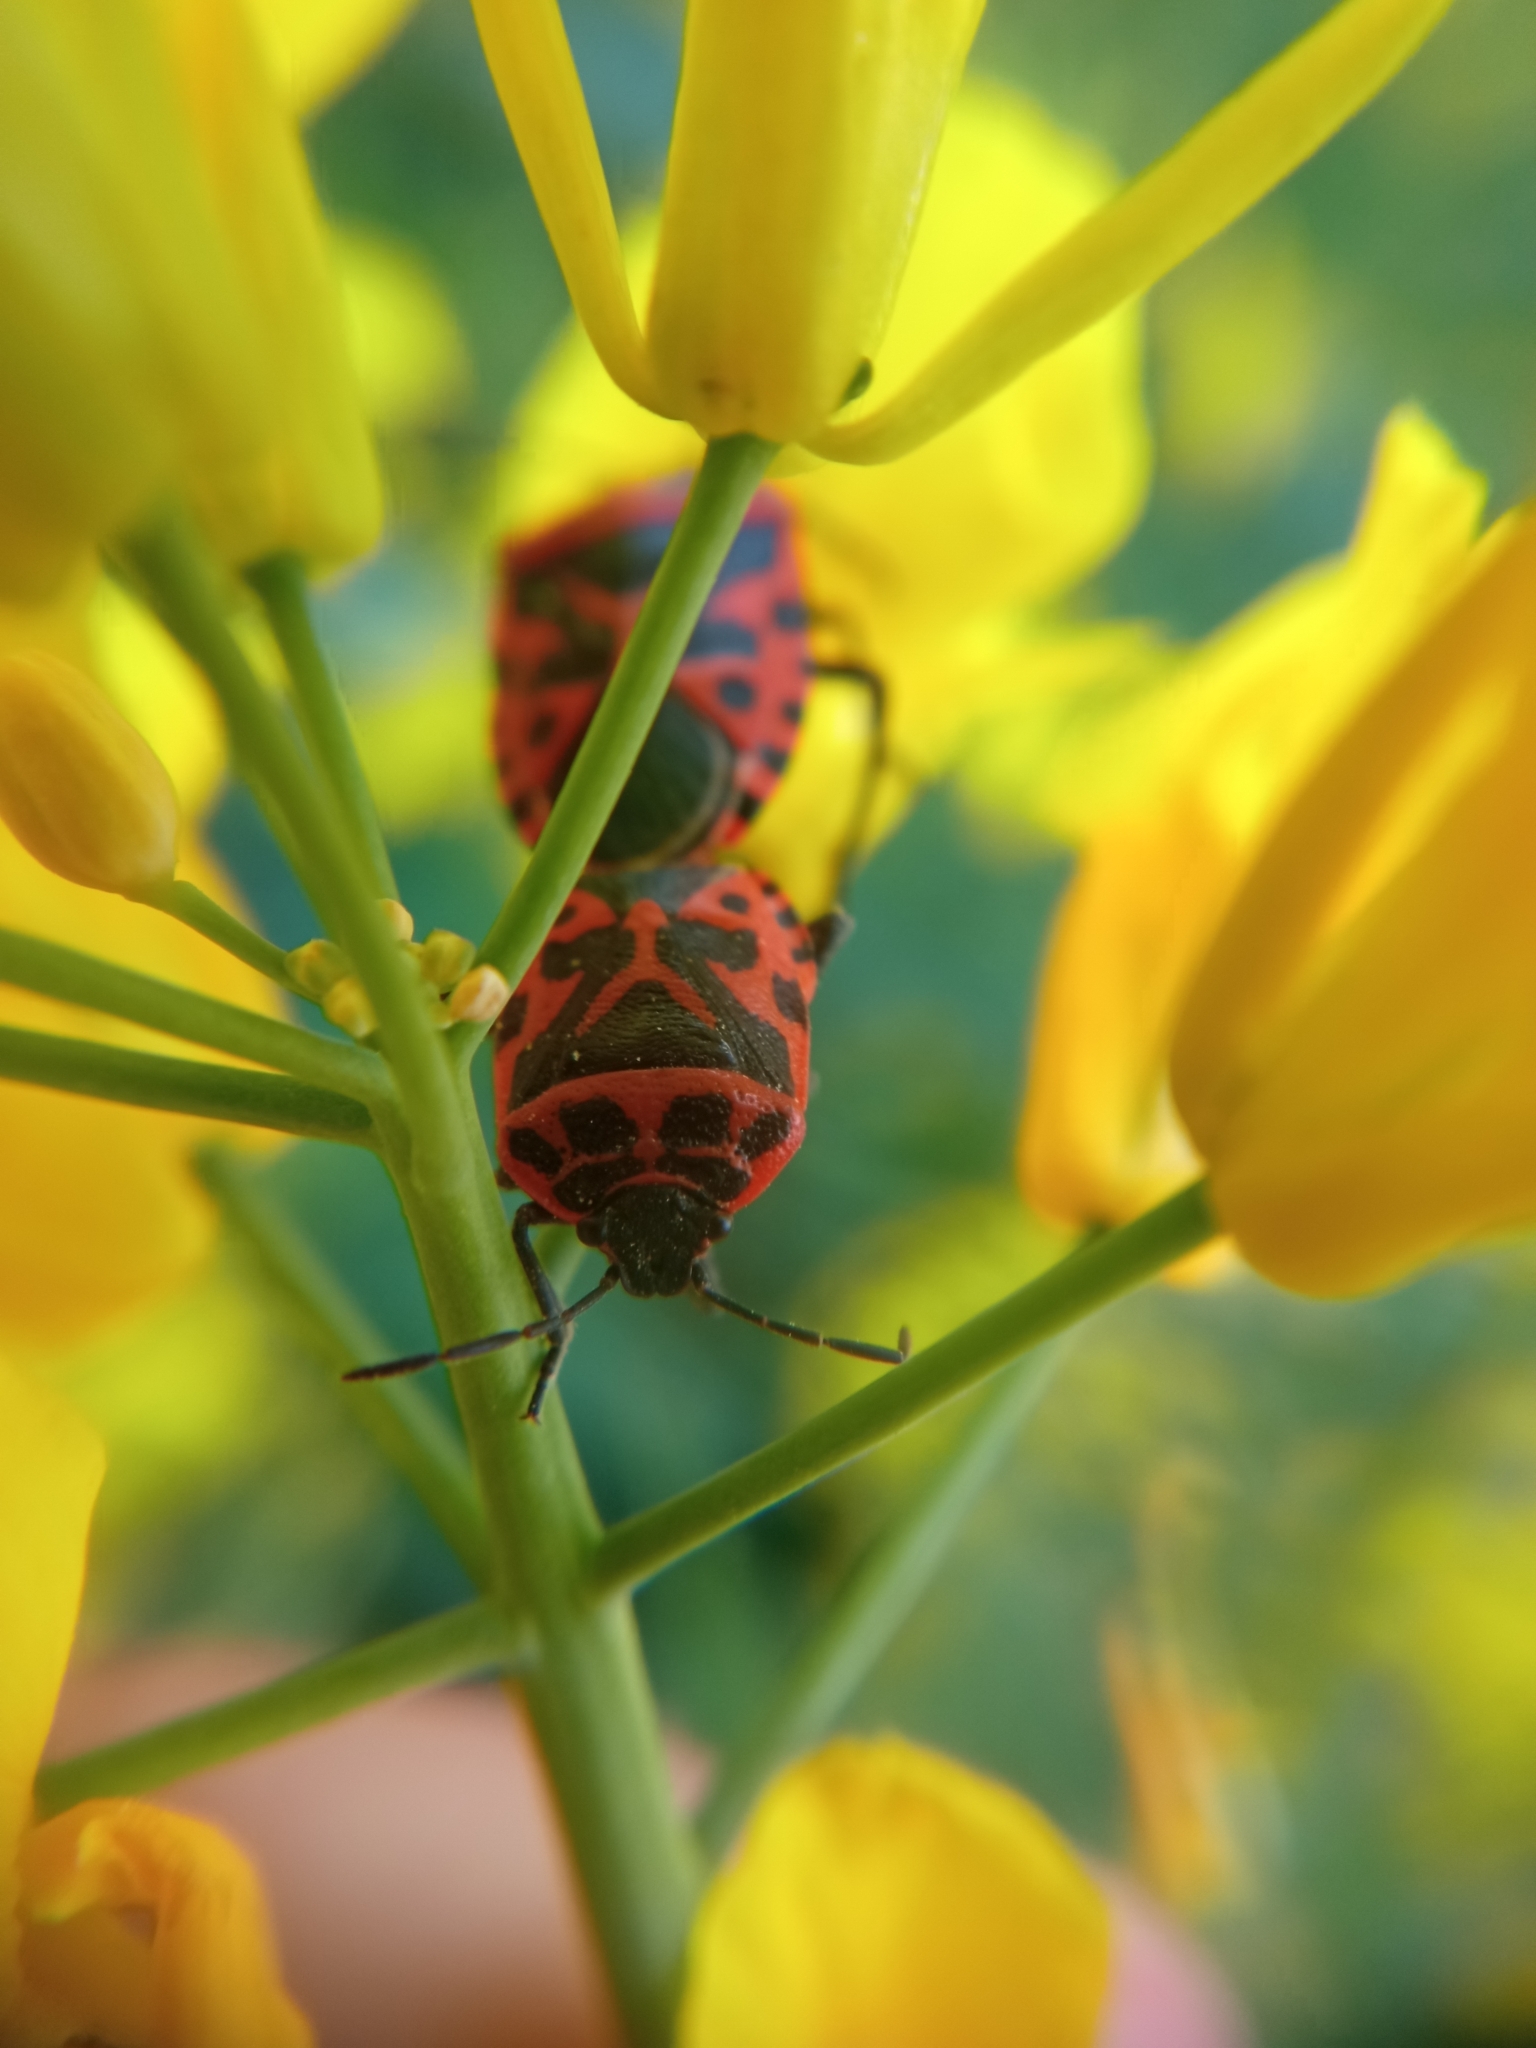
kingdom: Animalia
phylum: Arthropoda
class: Insecta
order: Hemiptera
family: Pentatomidae
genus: Eurydema
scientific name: Eurydema ventralis
